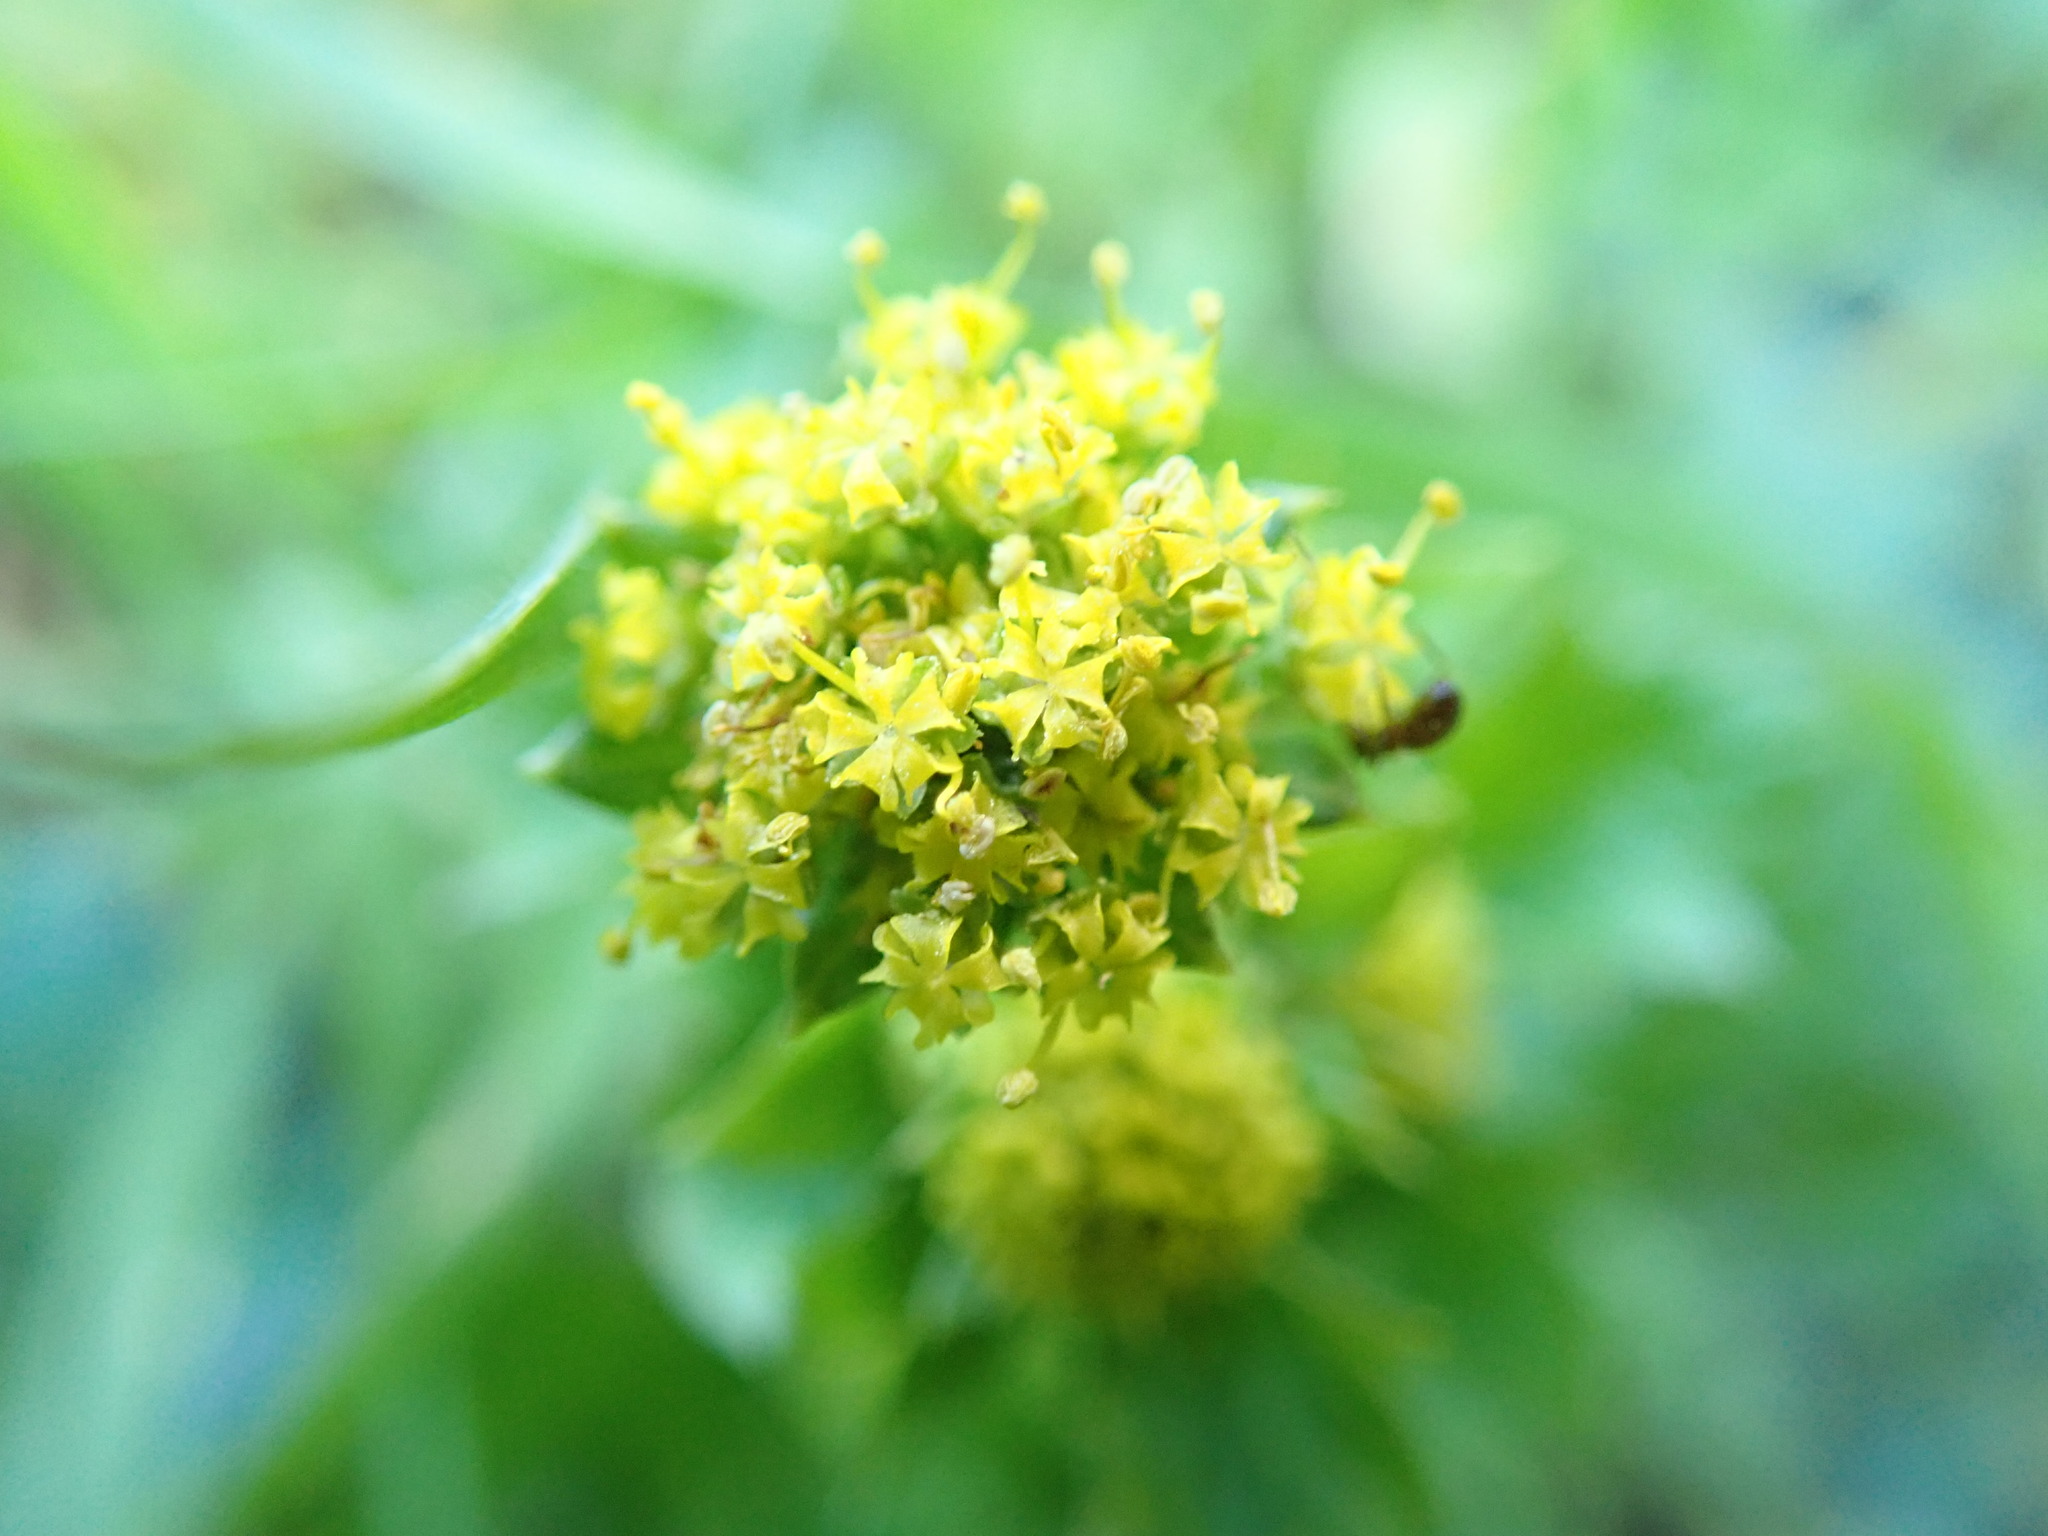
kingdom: Plantae
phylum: Tracheophyta
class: Magnoliopsida
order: Apiales
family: Apiaceae
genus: Sanicula
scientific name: Sanicula crassicaulis
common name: Western snakeroot
